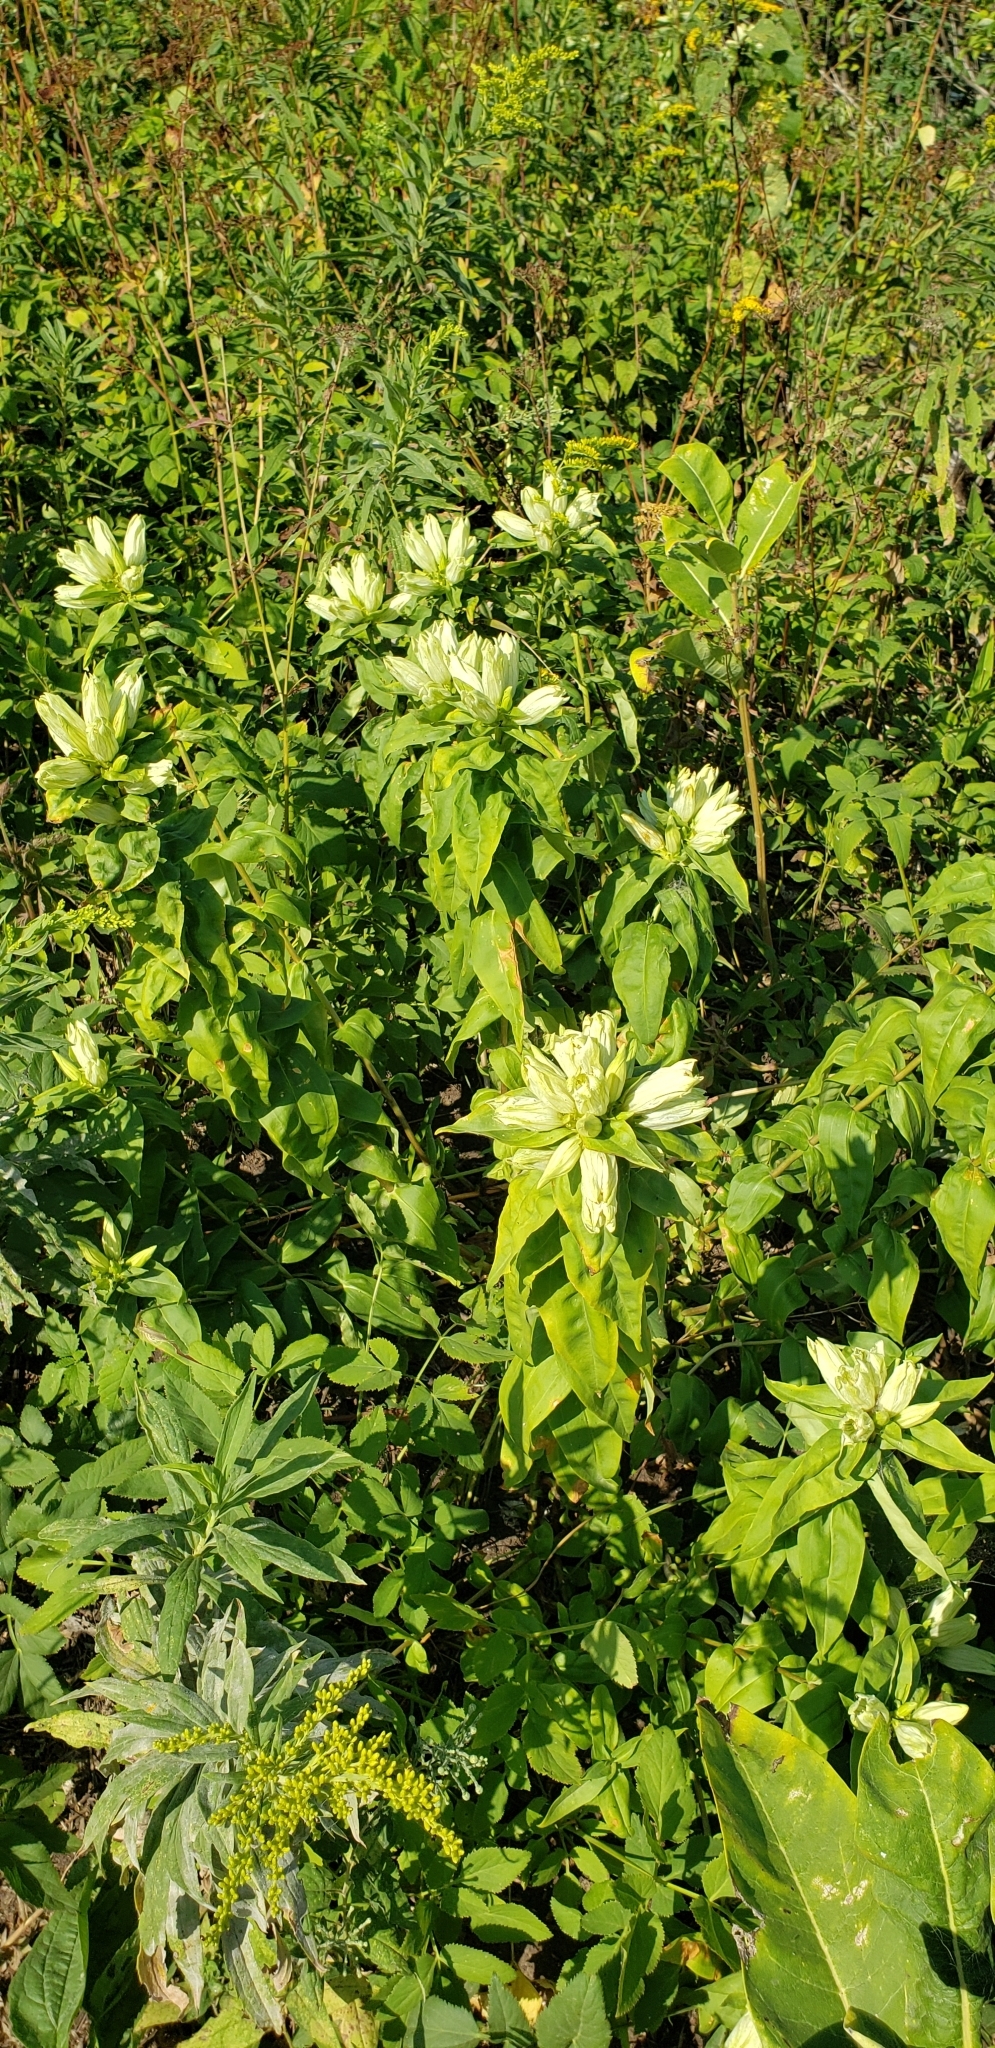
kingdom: Plantae
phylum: Tracheophyta
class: Magnoliopsida
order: Gentianales
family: Gentianaceae
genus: Gentiana
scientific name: Gentiana alba
